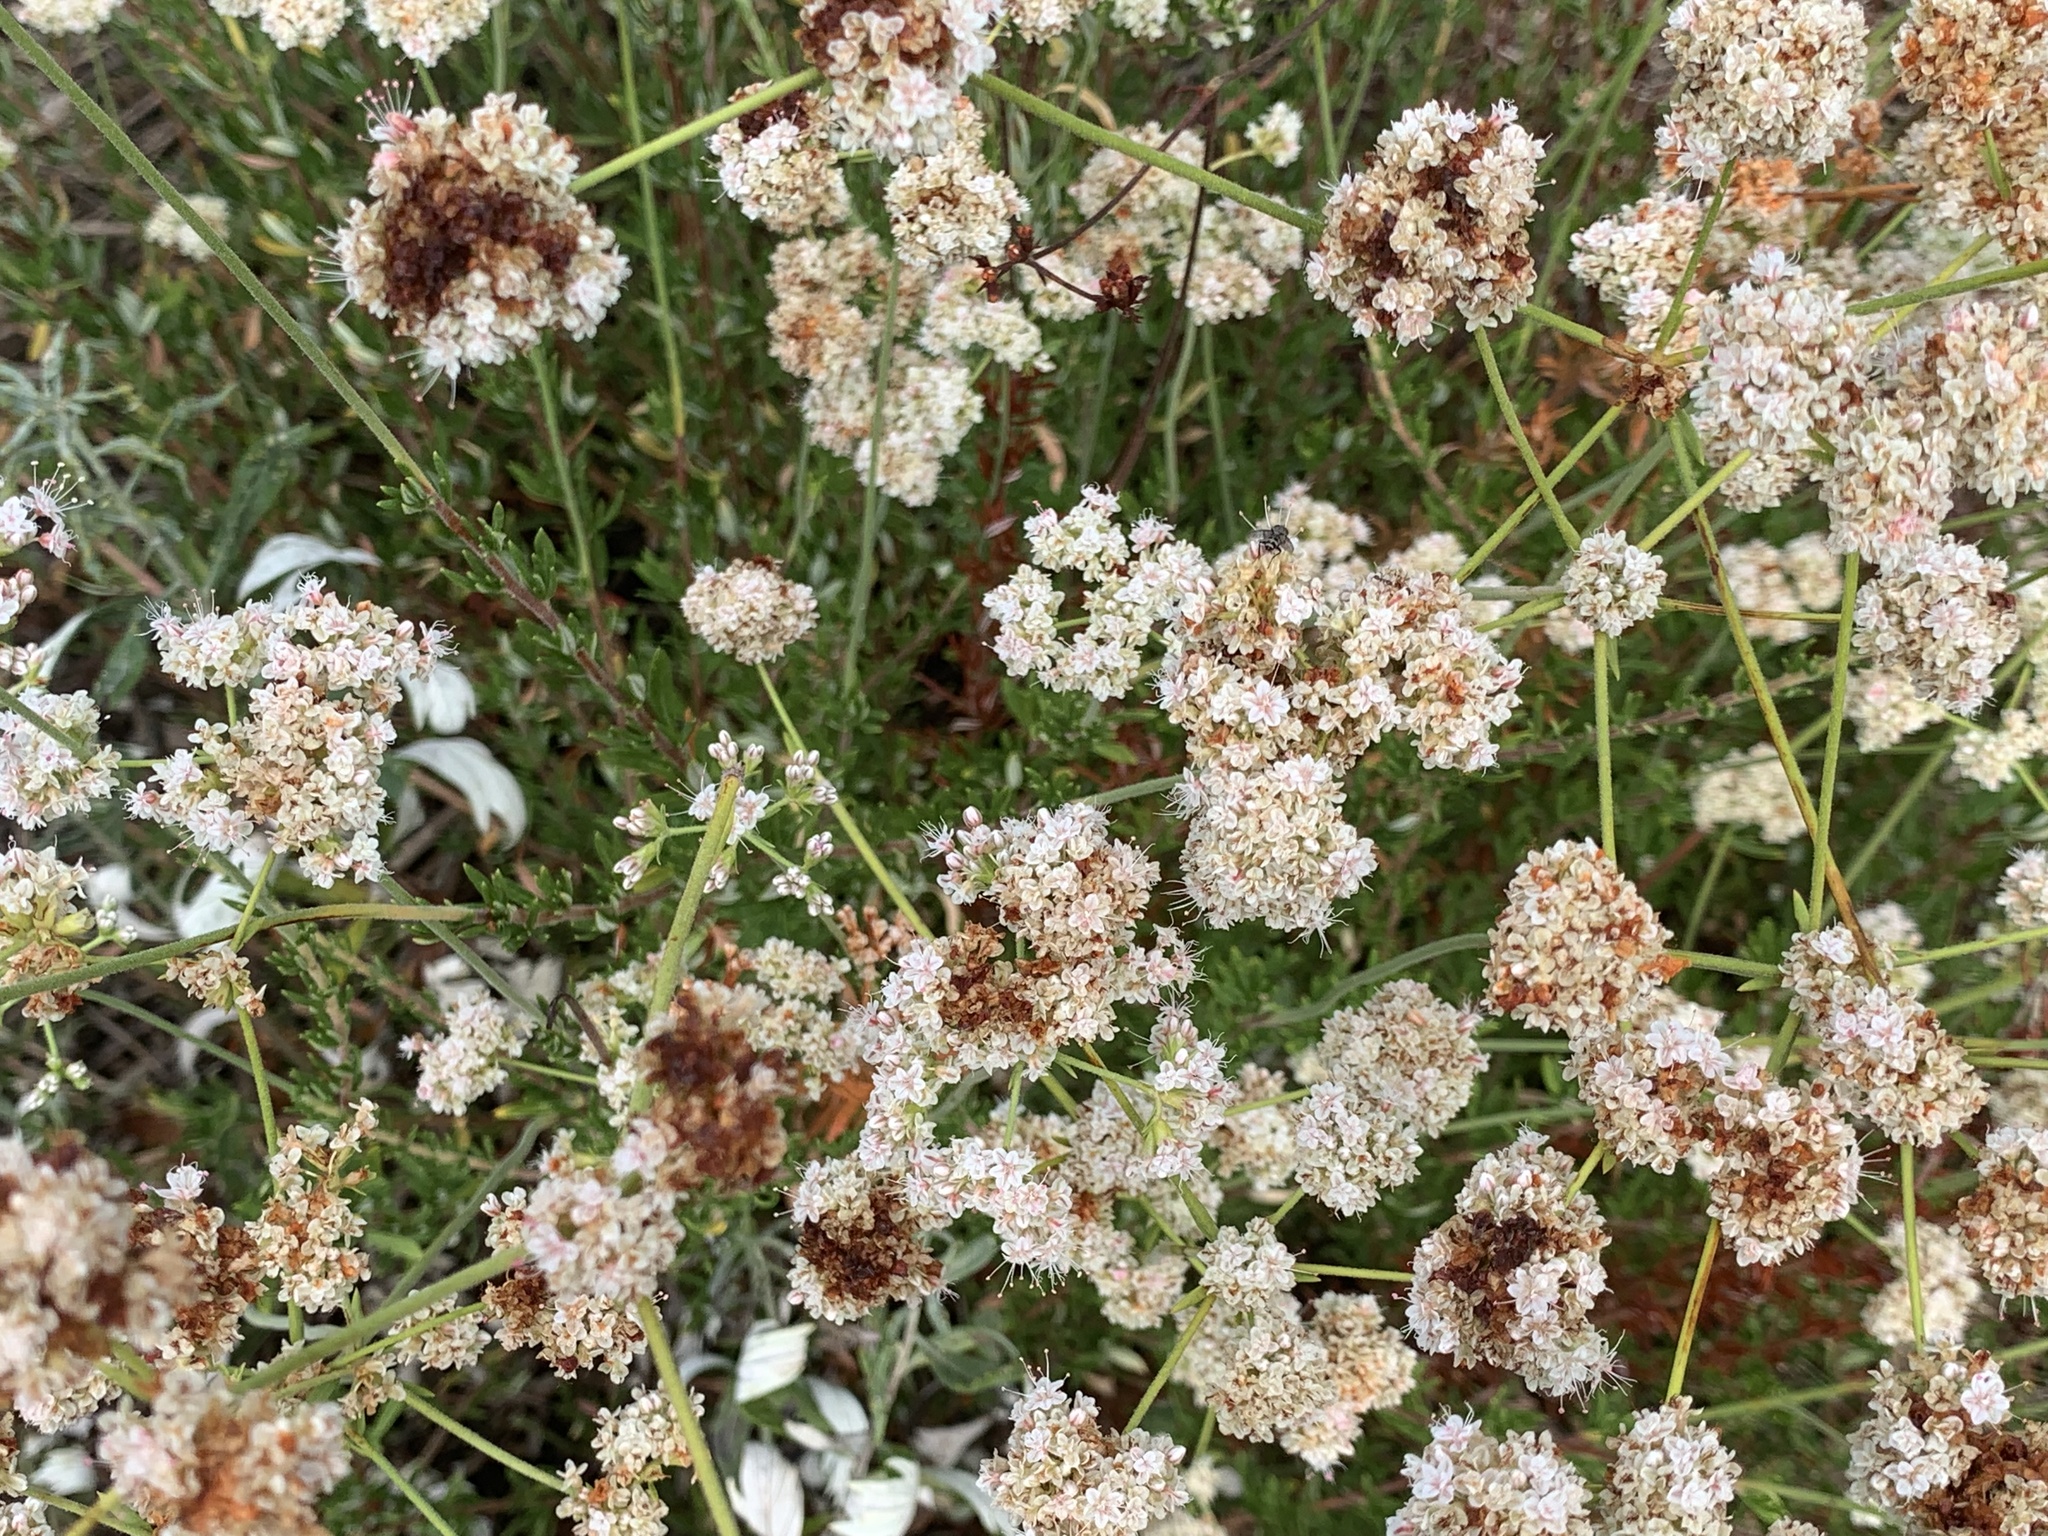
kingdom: Plantae
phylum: Tracheophyta
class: Magnoliopsida
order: Caryophyllales
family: Polygonaceae
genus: Eriogonum
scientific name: Eriogonum fasciculatum
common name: California wild buckwheat
